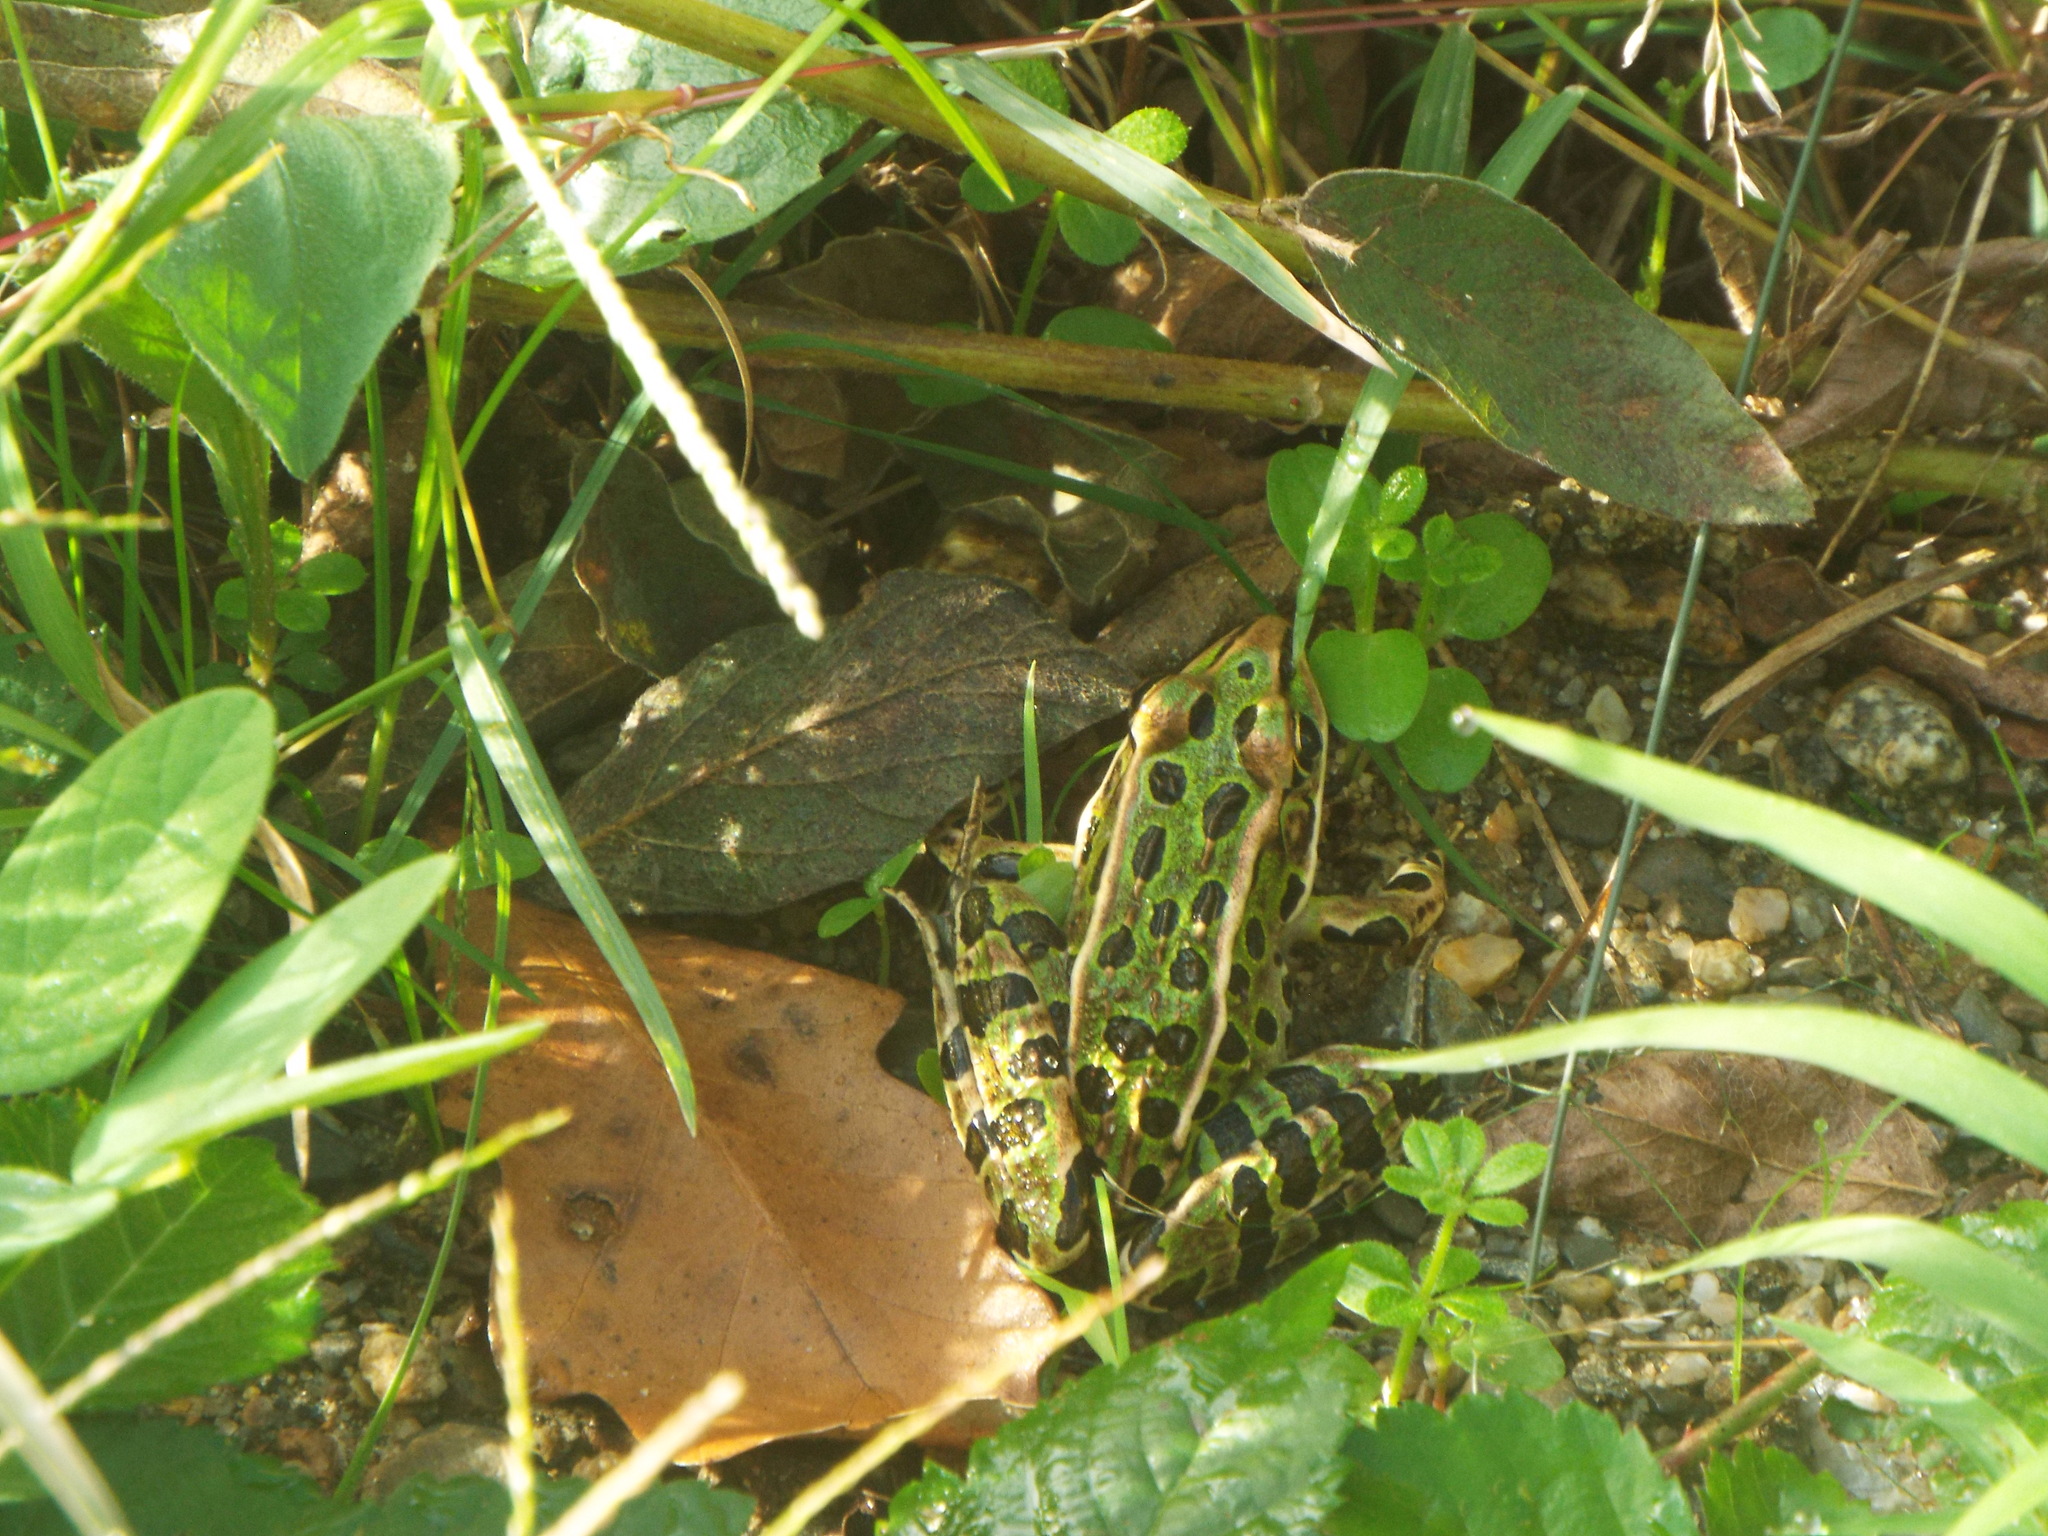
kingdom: Animalia
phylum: Chordata
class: Amphibia
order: Anura
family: Ranidae
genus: Lithobates
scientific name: Lithobates pipiens
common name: Northern leopard frog
